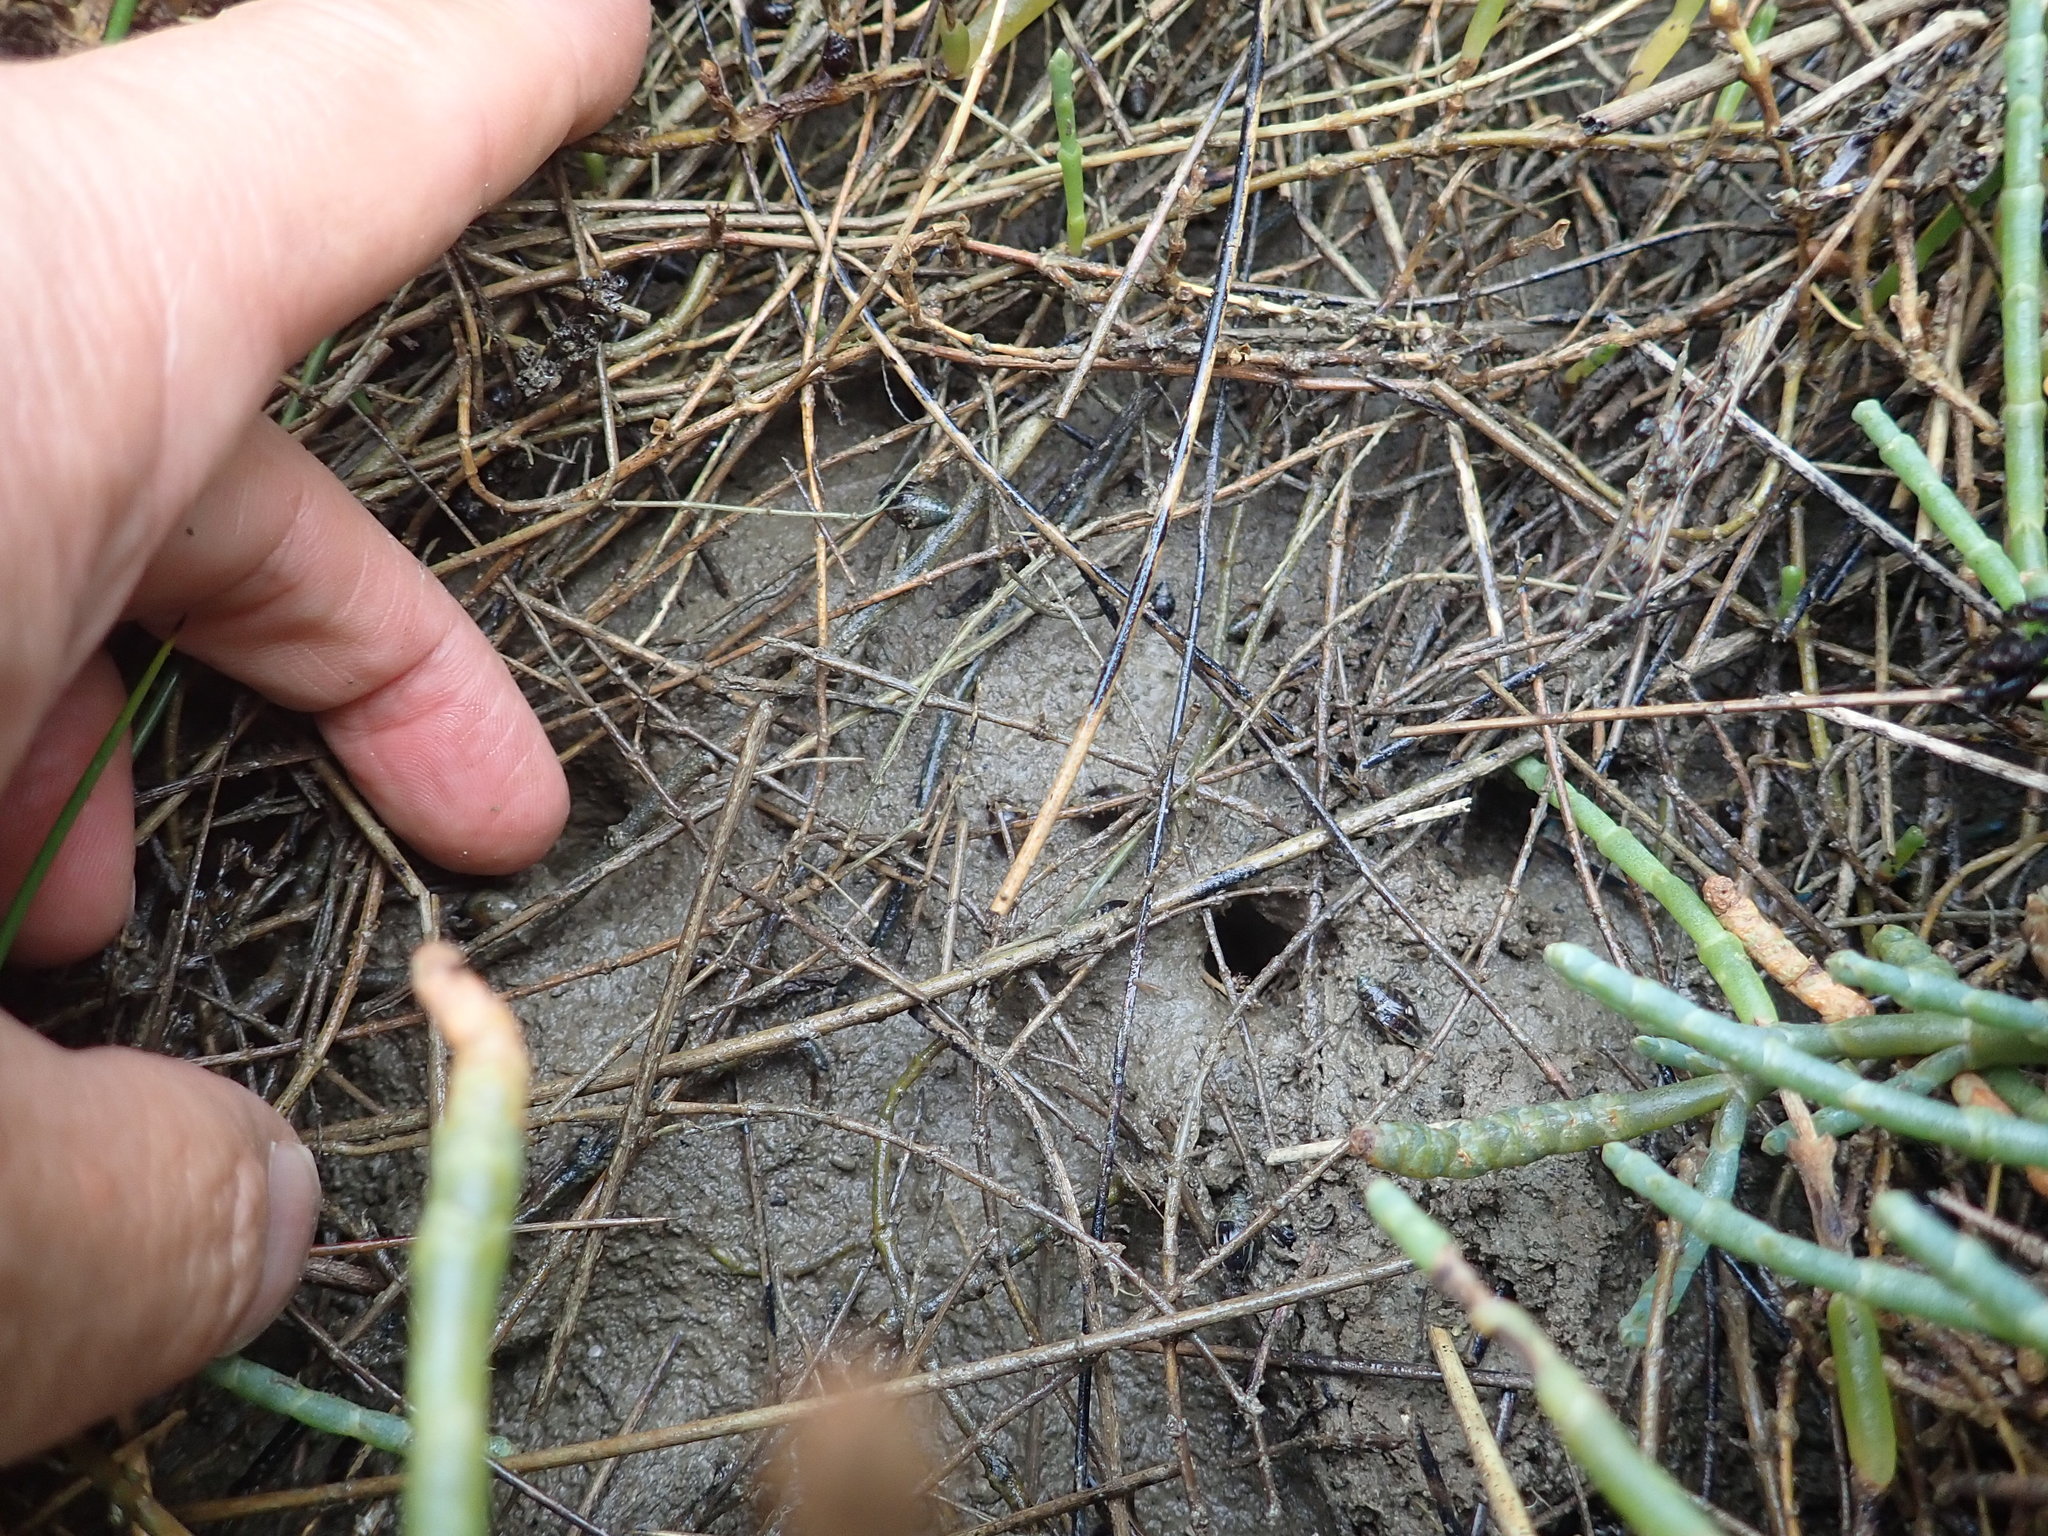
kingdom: Animalia
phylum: Mollusca
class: Gastropoda
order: Ellobiida
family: Ellobiidae
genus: Pleuroloba
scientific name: Pleuroloba costellaris
